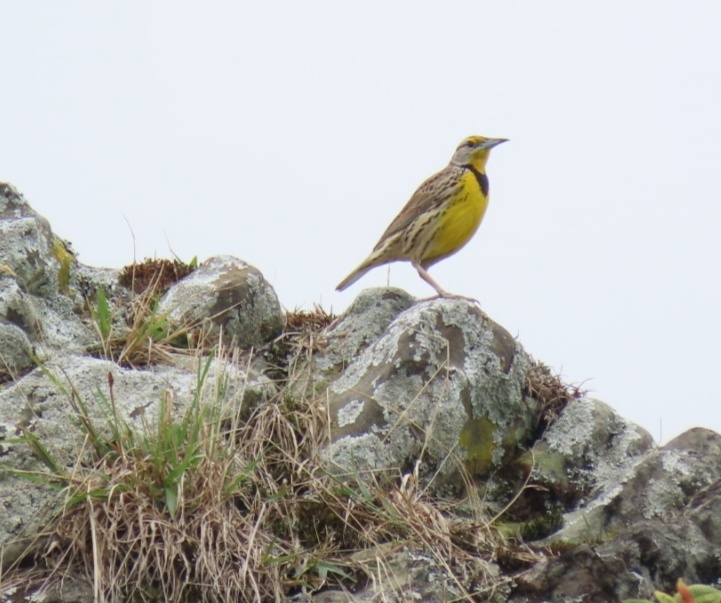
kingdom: Animalia
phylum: Chordata
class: Aves
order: Passeriformes
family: Icteridae
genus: Sturnella
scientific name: Sturnella magna
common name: Eastern meadowlark
